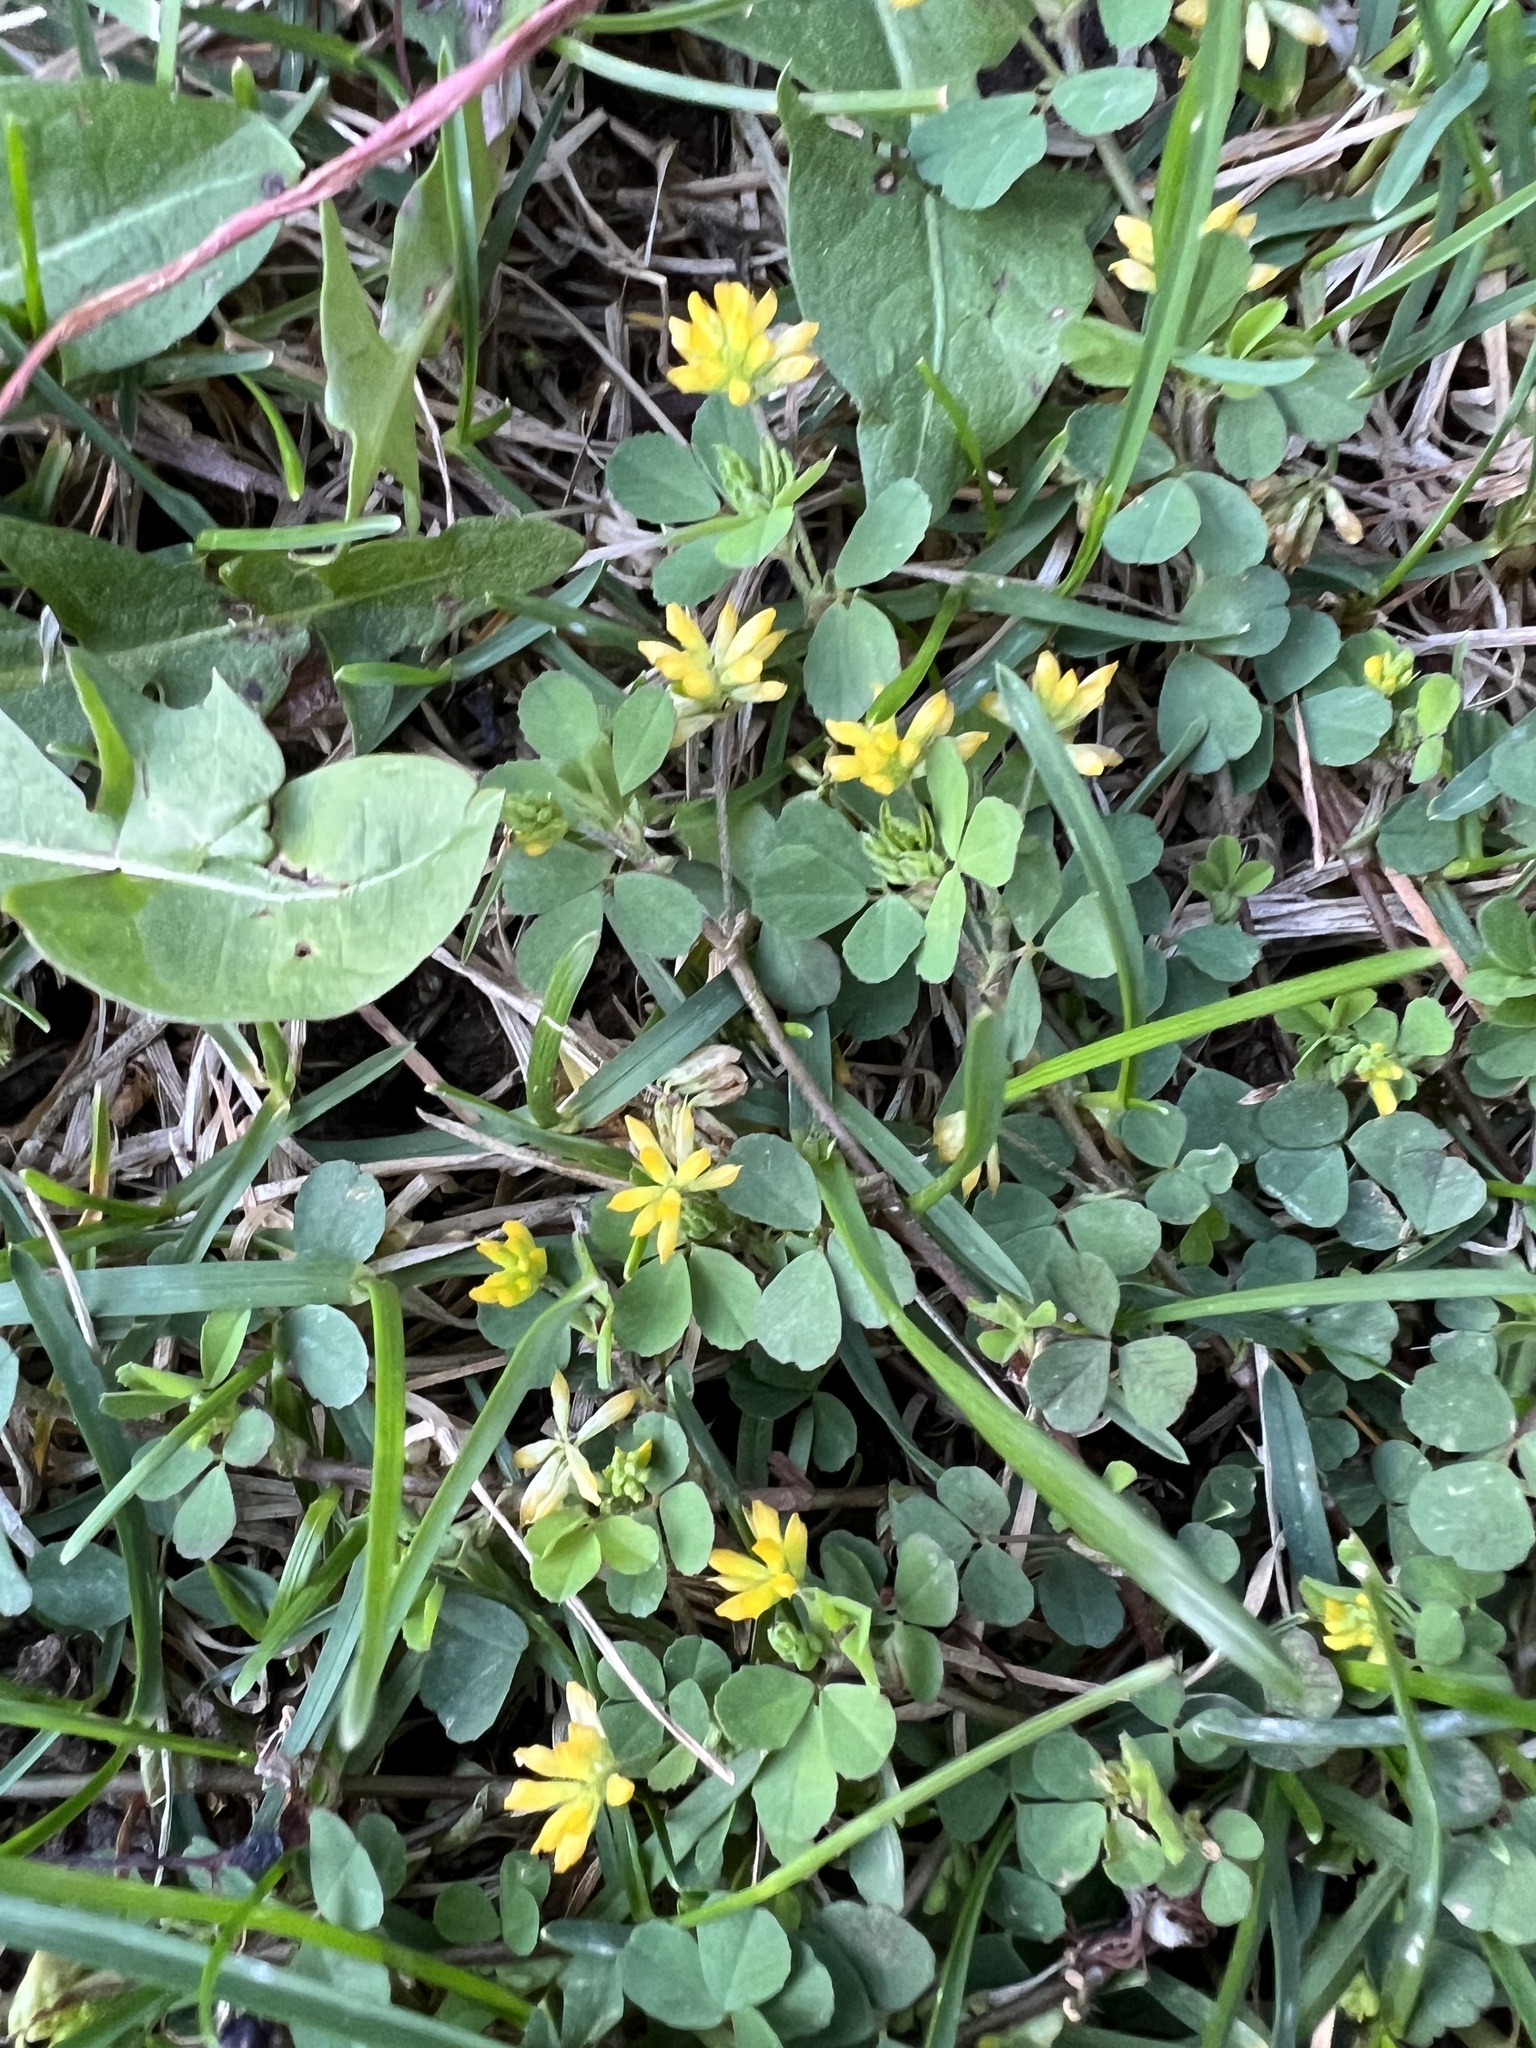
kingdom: Plantae
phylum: Tracheophyta
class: Magnoliopsida
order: Fabales
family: Fabaceae
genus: Trifolium
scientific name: Trifolium dubium
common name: Suckling clover
